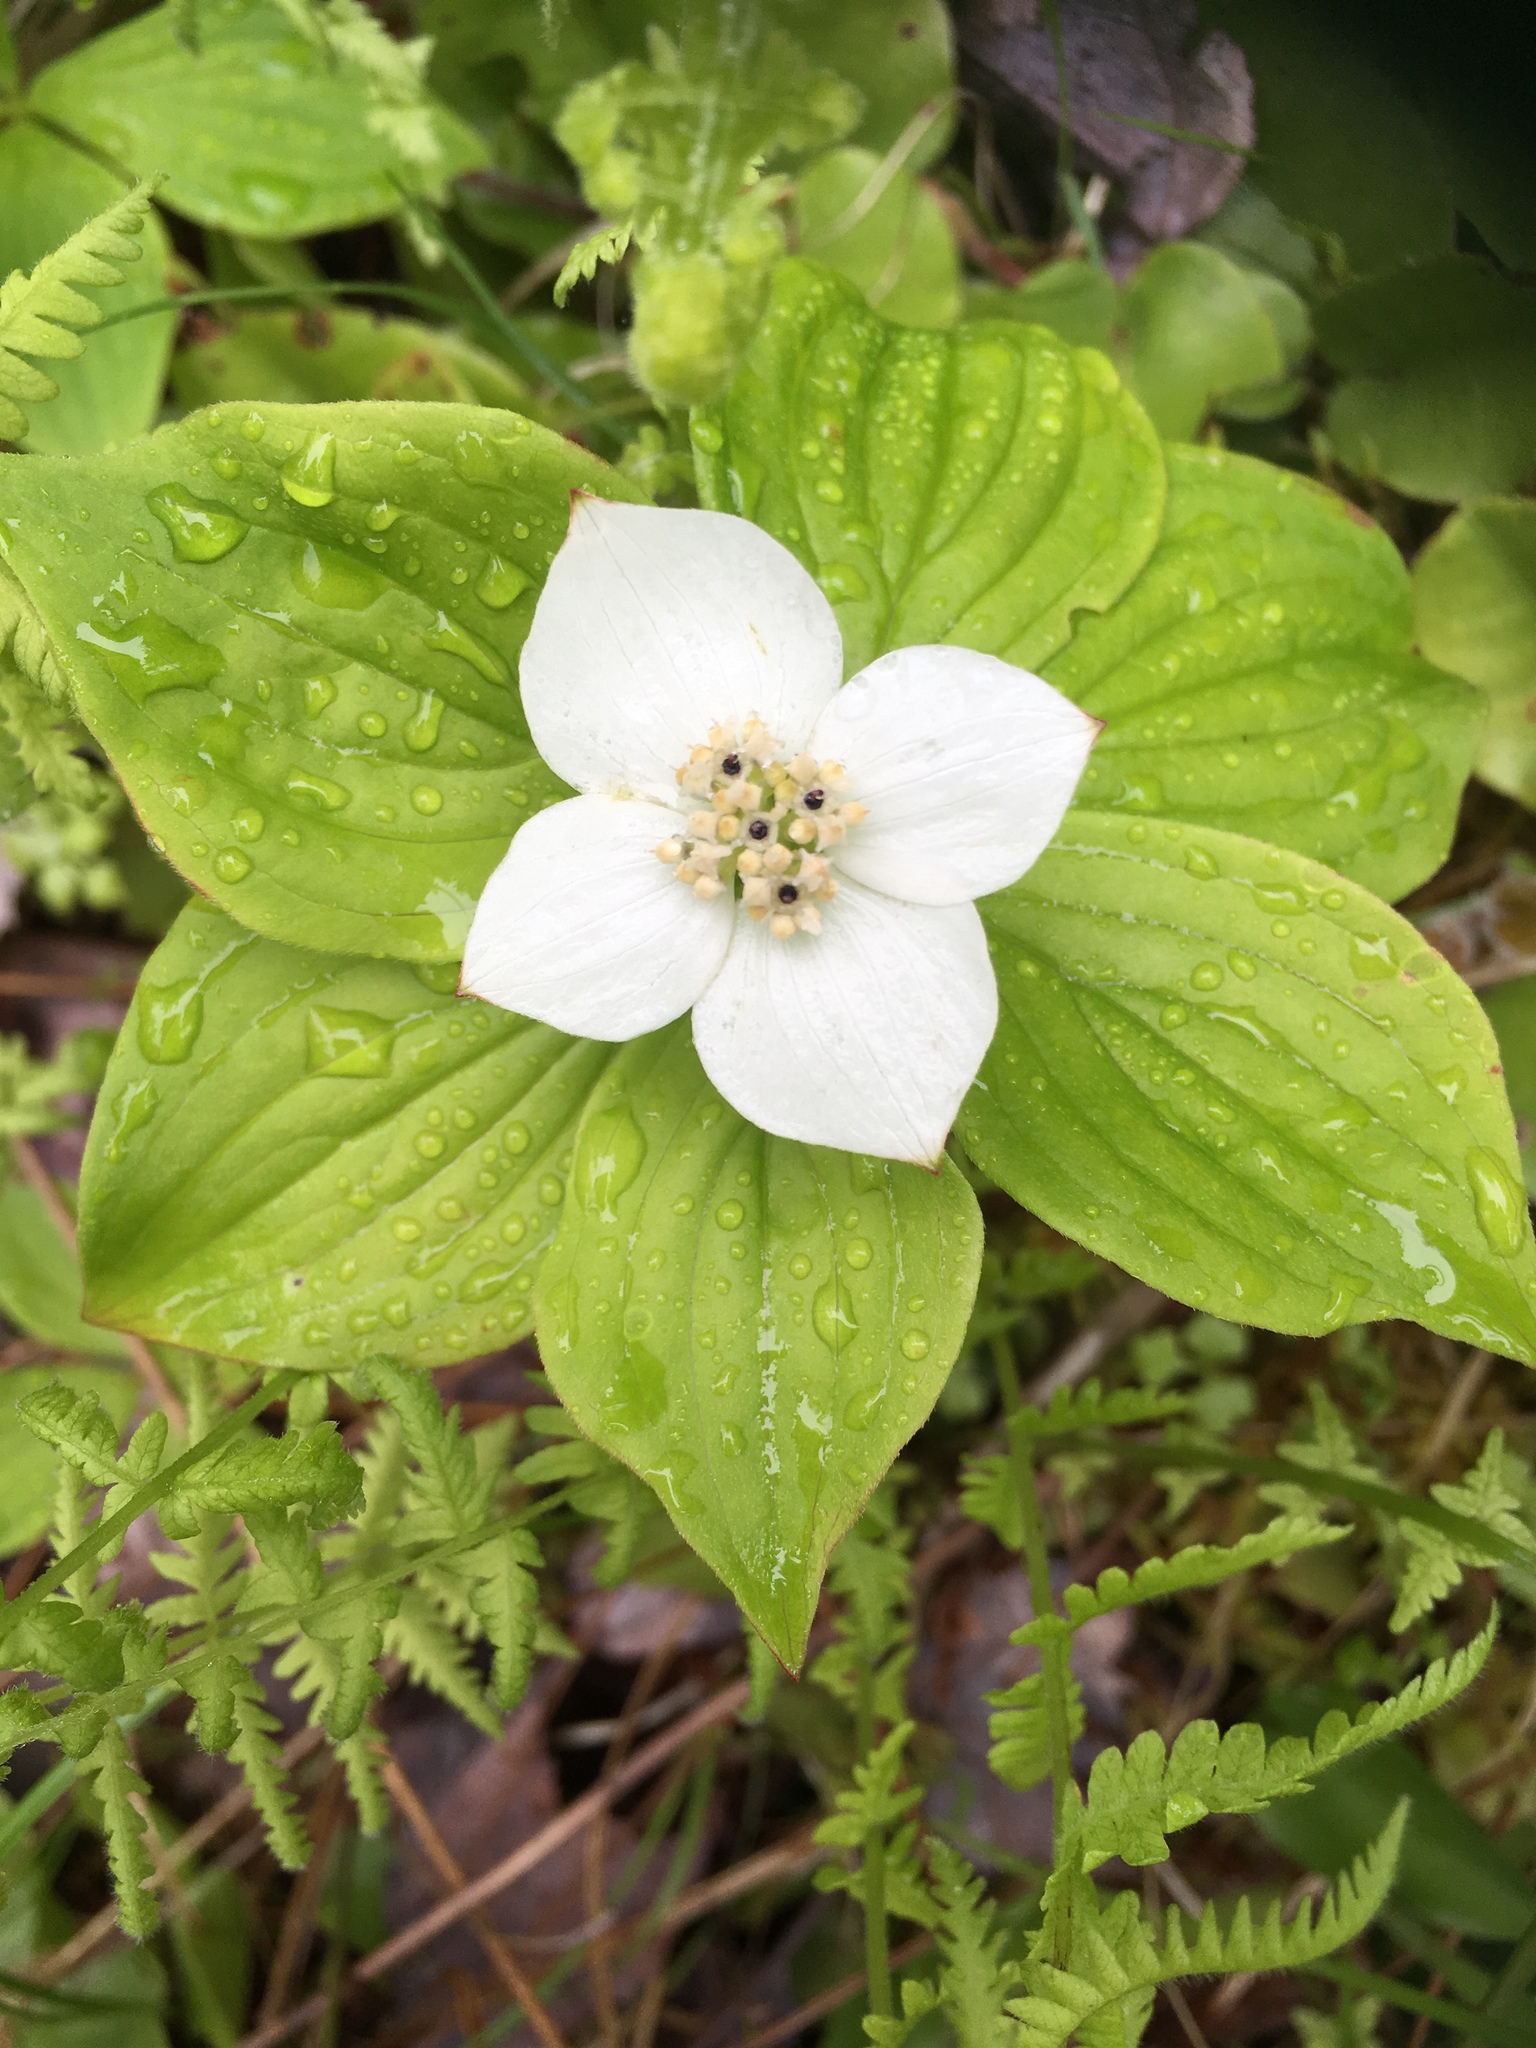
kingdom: Plantae
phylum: Tracheophyta
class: Magnoliopsida
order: Cornales
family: Cornaceae
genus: Cornus
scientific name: Cornus canadensis
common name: Creeping dogwood
